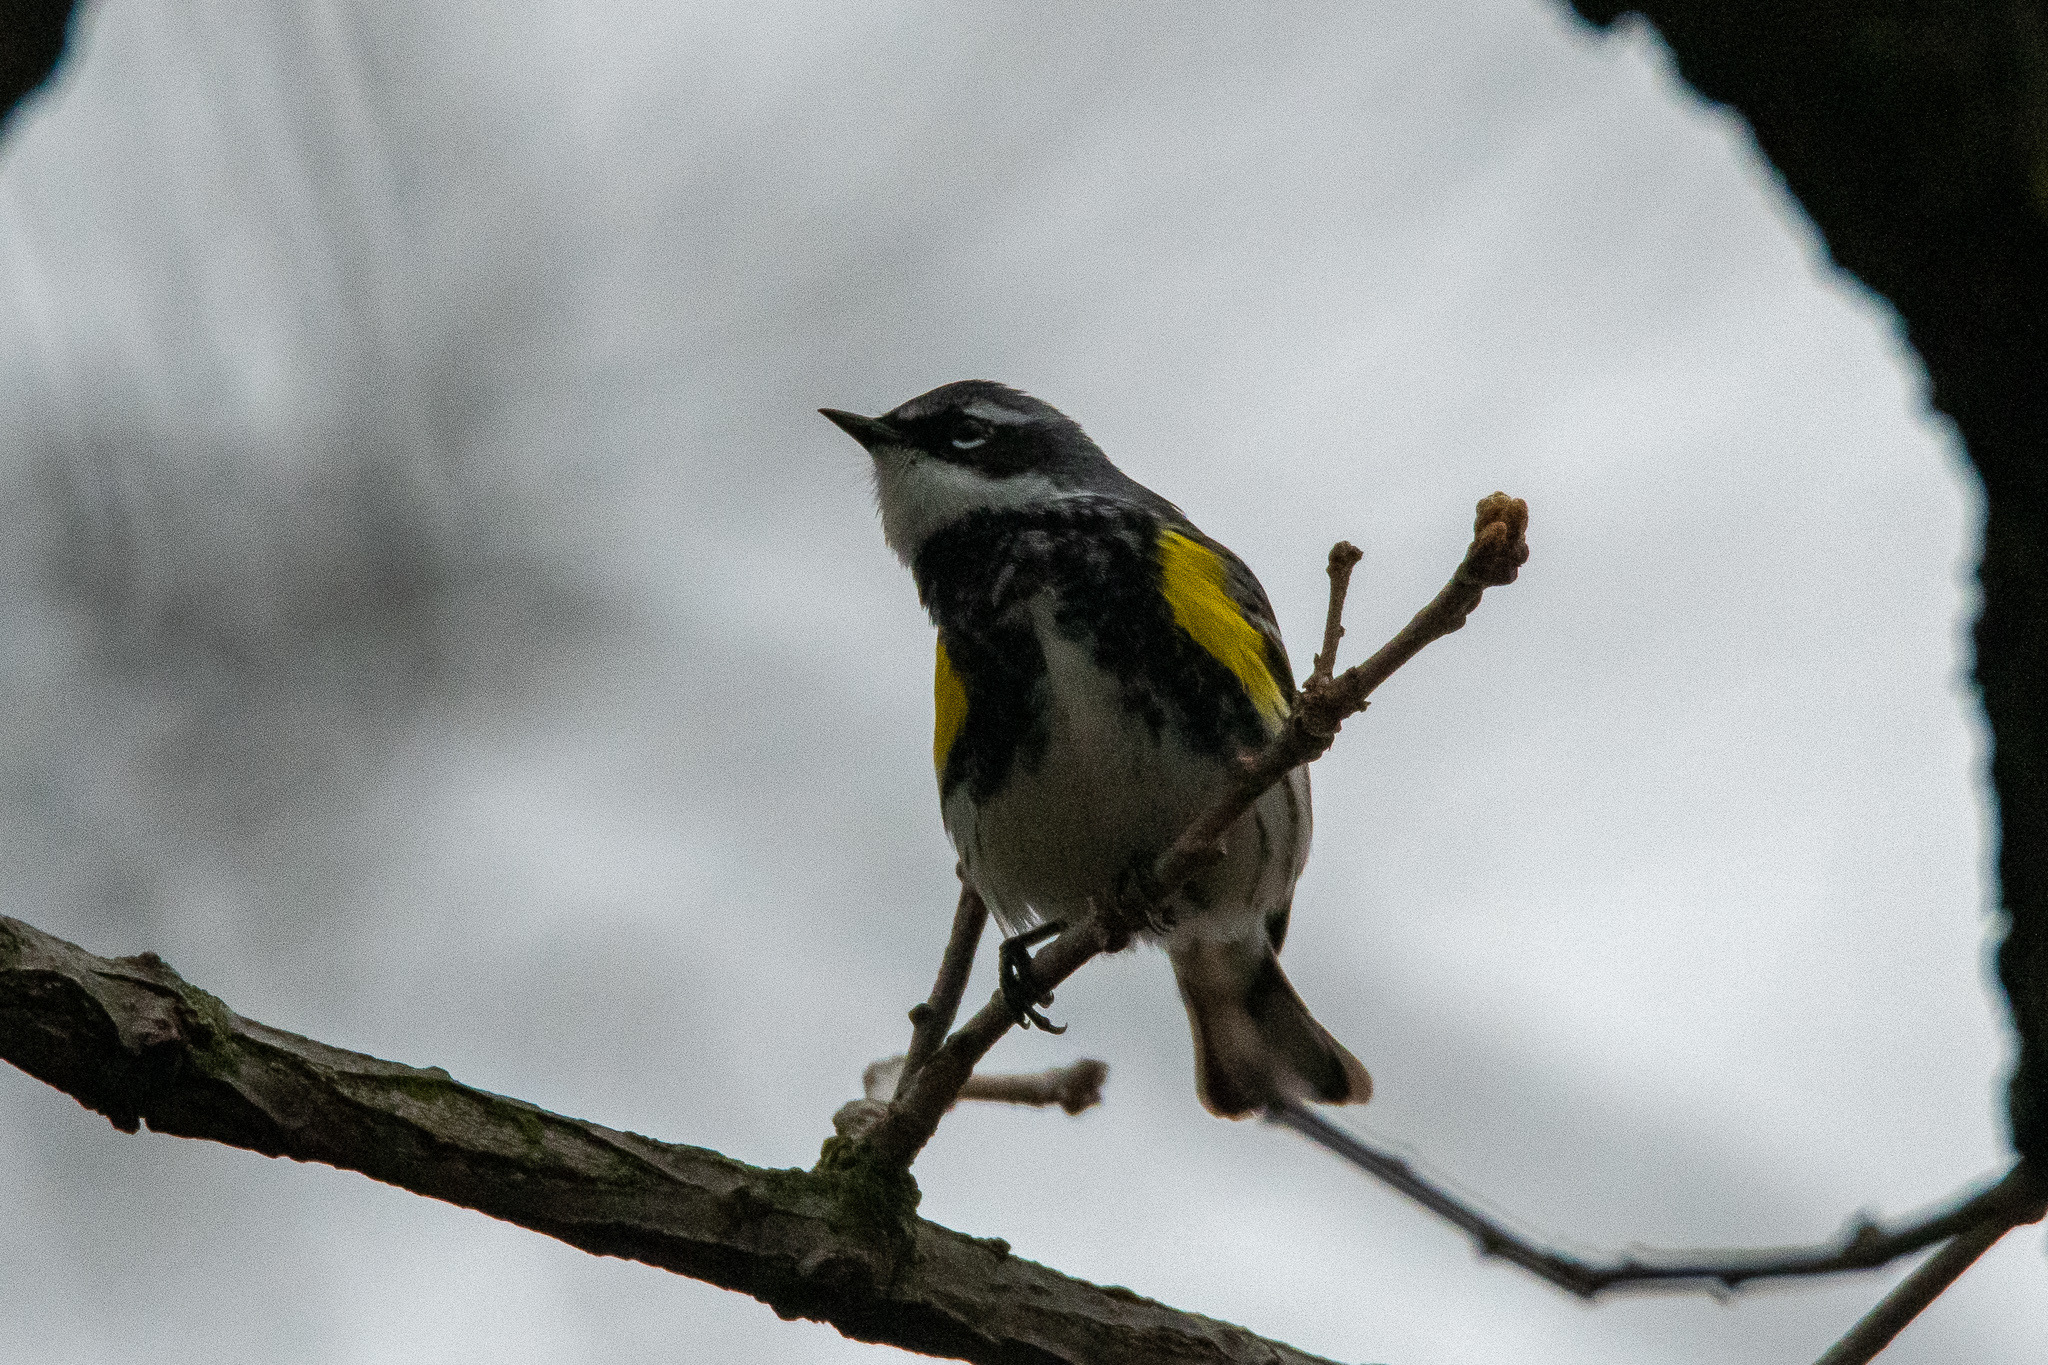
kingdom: Animalia
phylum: Chordata
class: Aves
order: Passeriformes
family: Parulidae
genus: Setophaga
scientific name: Setophaga coronata
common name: Myrtle warbler
